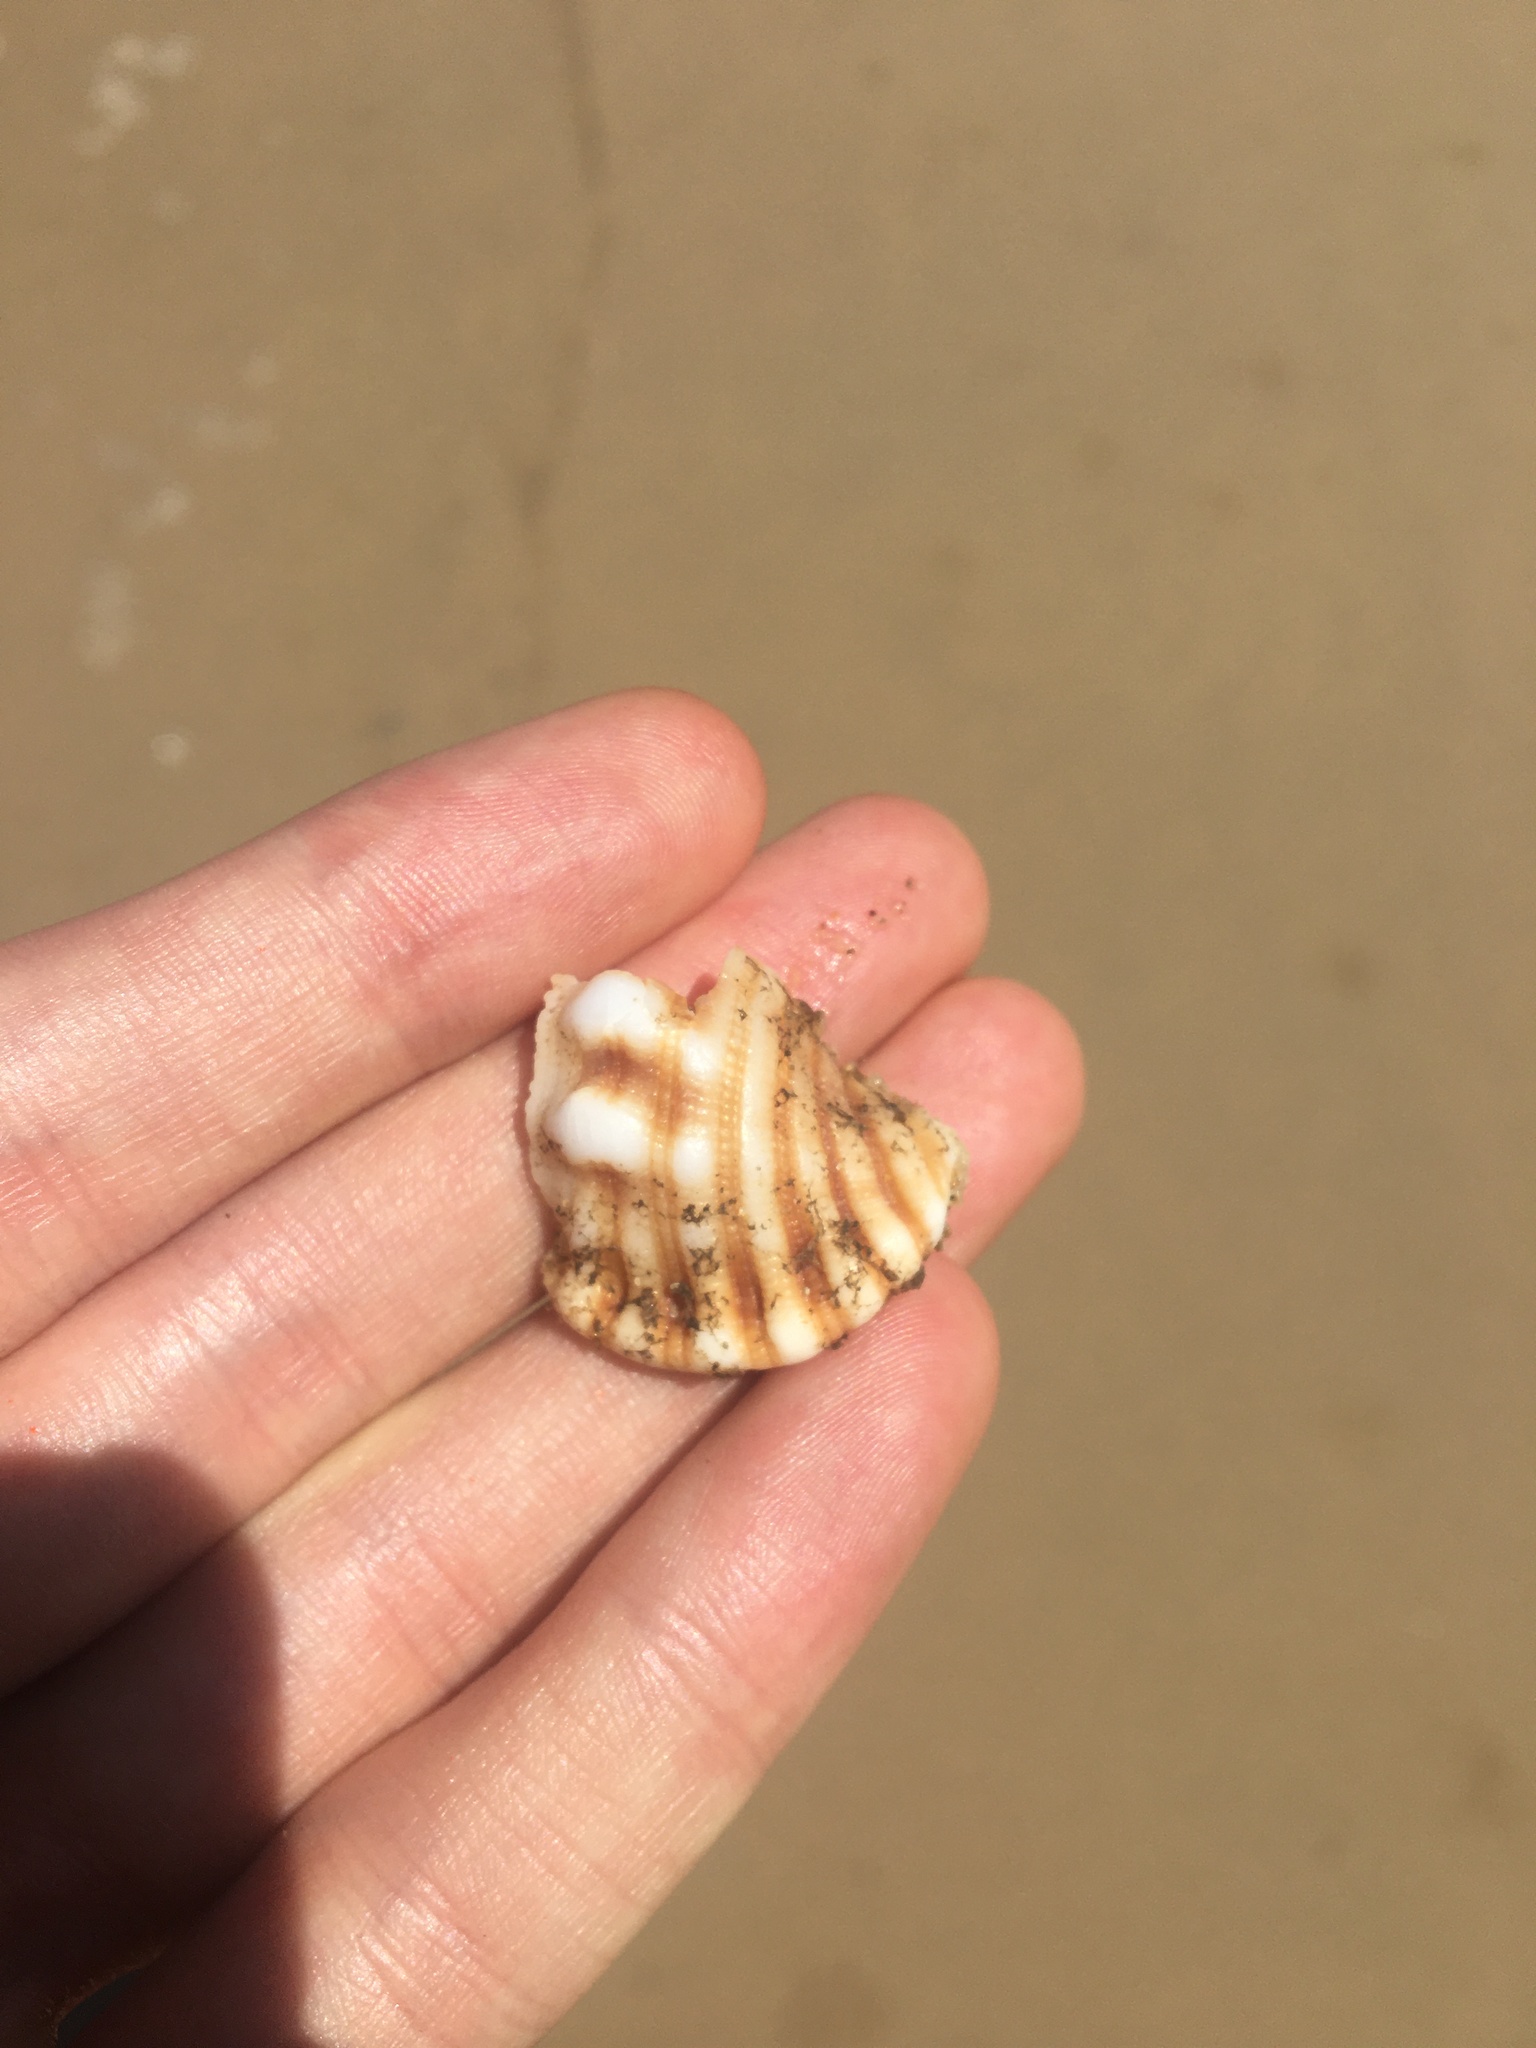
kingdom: Animalia
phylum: Mollusca
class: Gastropoda
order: Littorinimorpha
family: Cymatiidae
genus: Cabestana
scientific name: Cabestana spengleri
